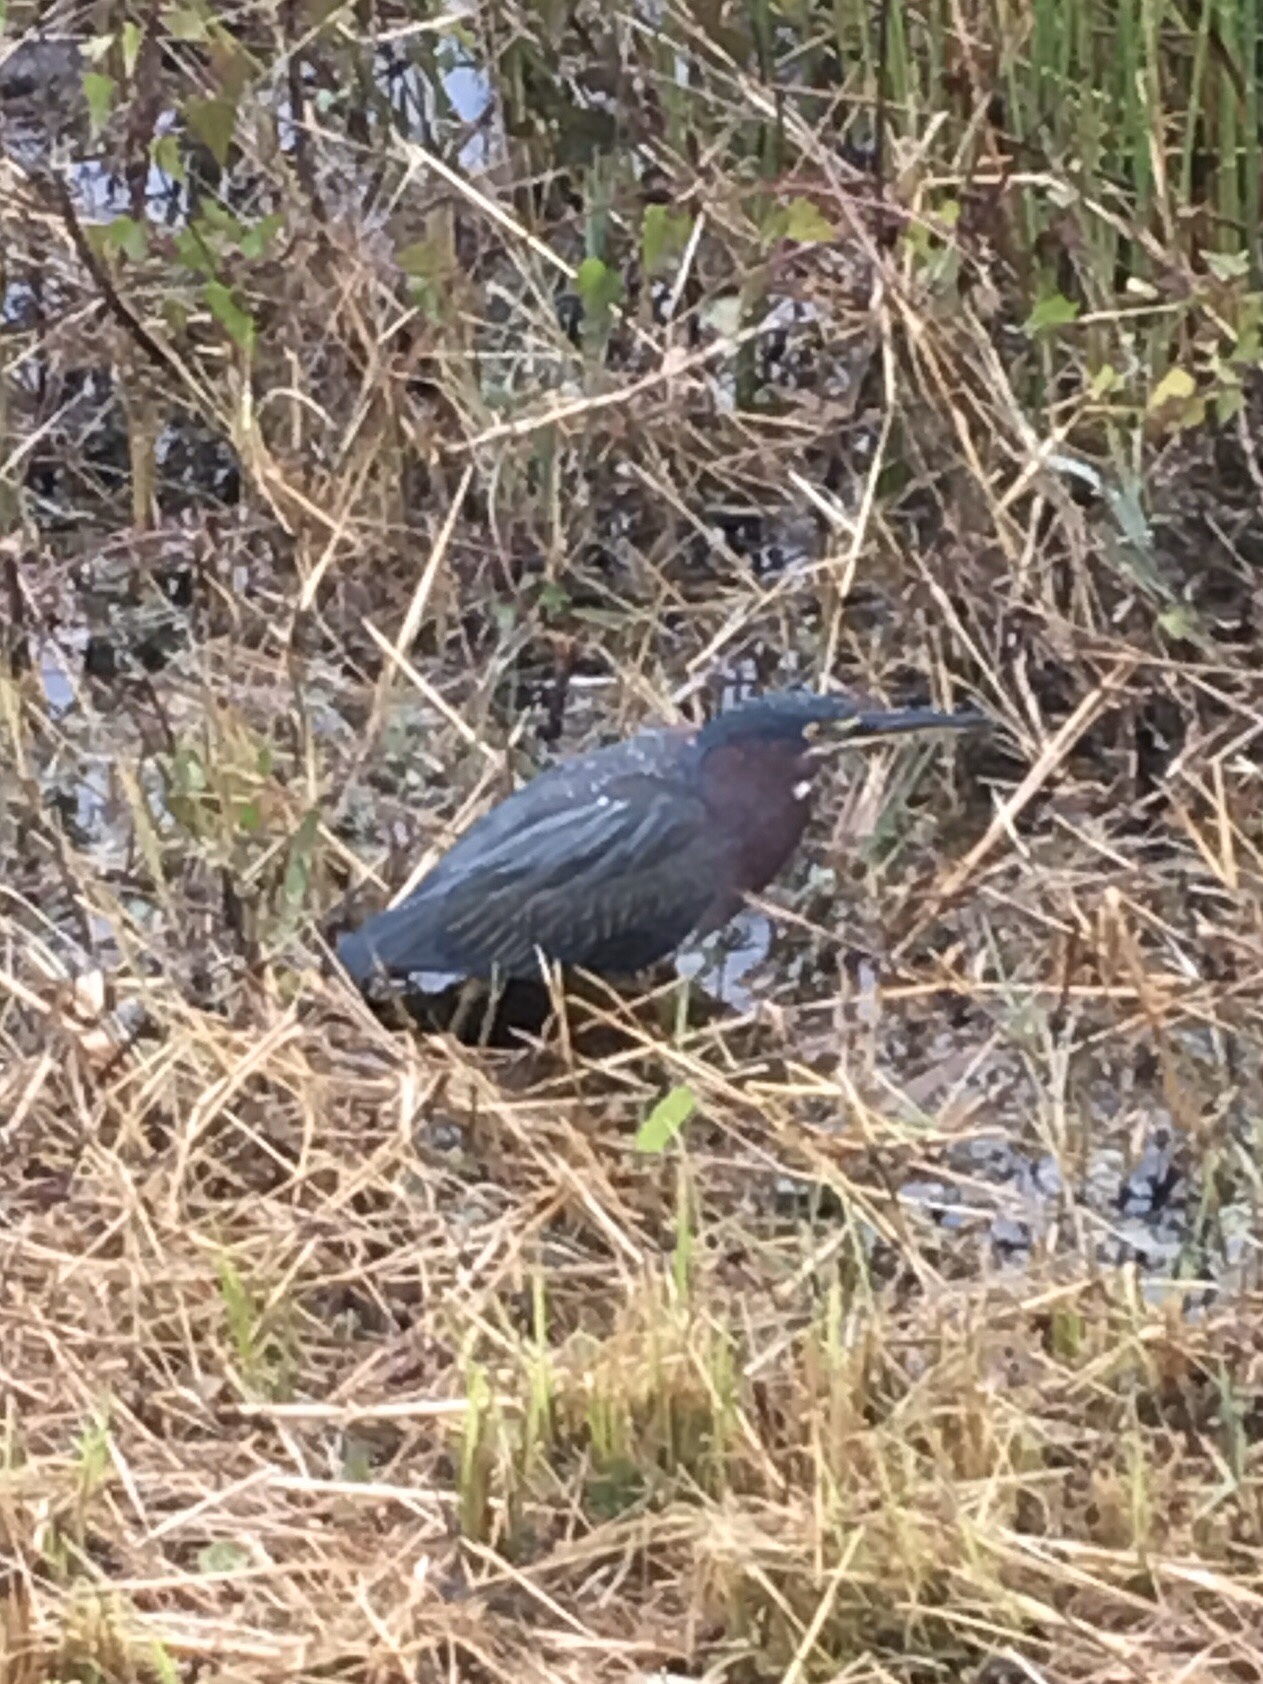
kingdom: Animalia
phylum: Chordata
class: Aves
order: Pelecaniformes
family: Ardeidae
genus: Butorides
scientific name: Butorides virescens
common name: Green heron
